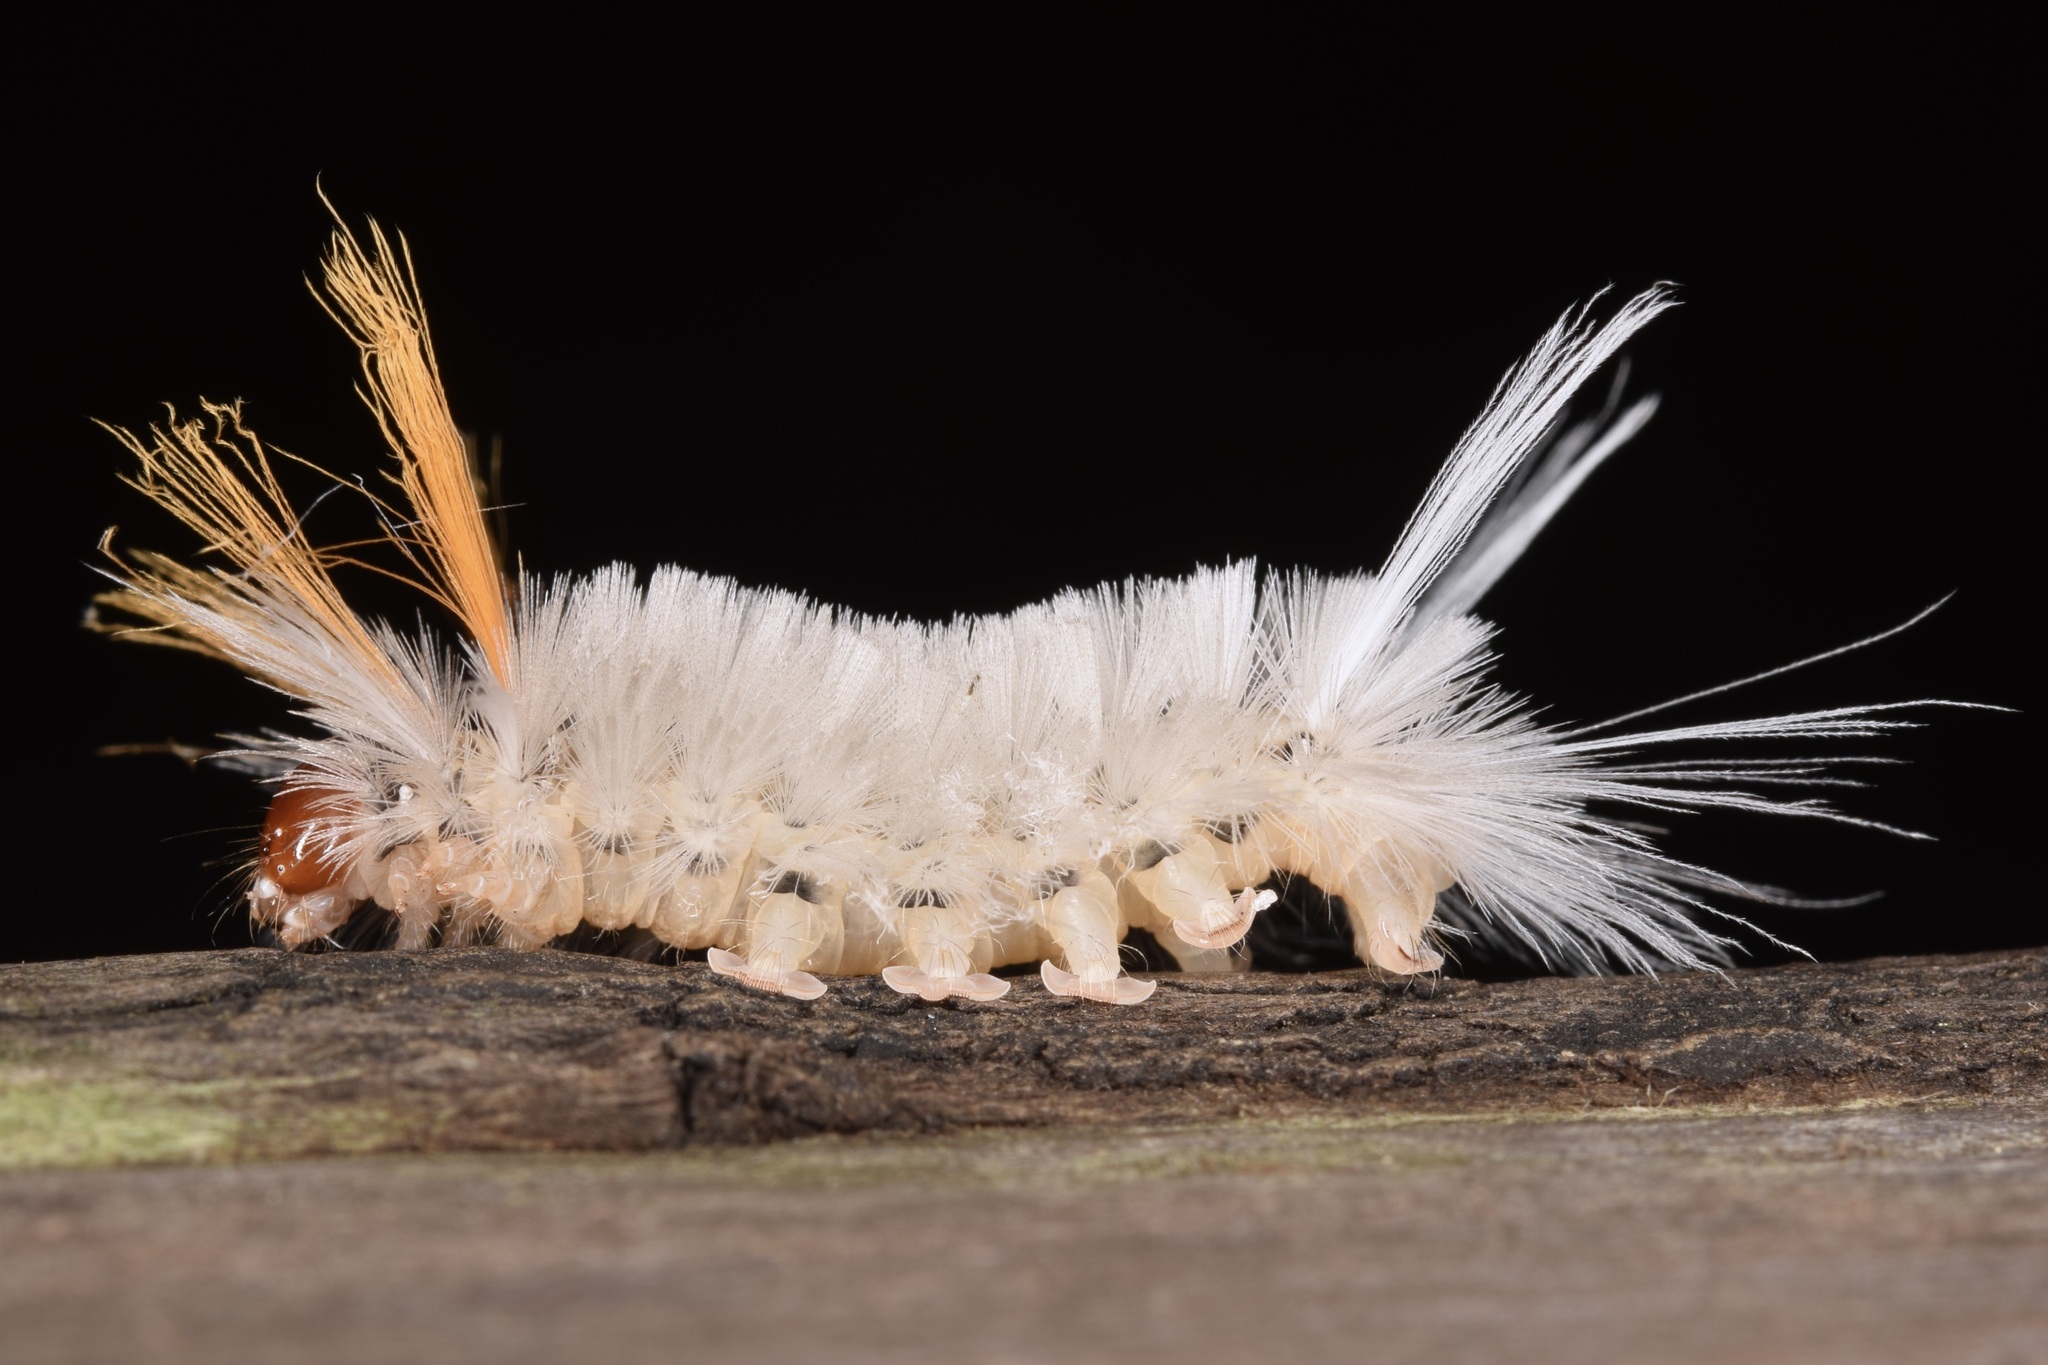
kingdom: Animalia
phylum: Arthropoda
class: Insecta
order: Lepidoptera
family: Erebidae
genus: Halysidota
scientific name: Halysidota harrisii
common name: Sycamore tussock moth
